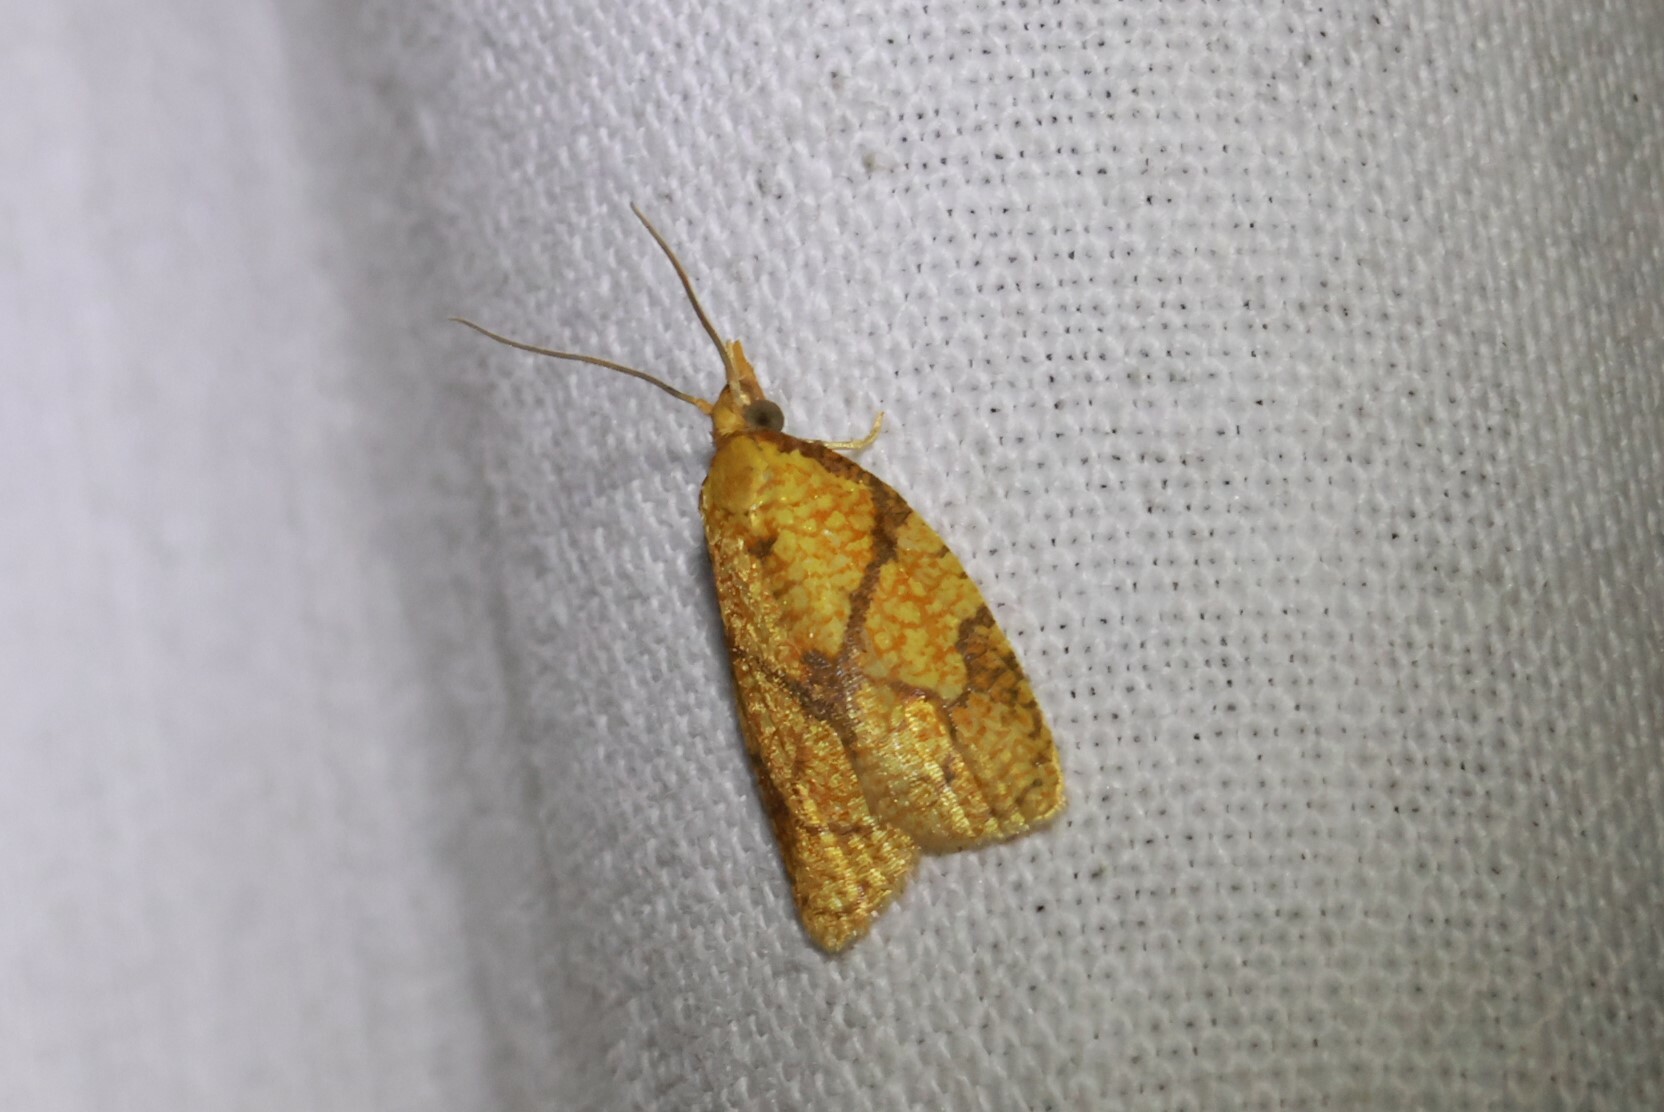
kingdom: Animalia
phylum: Arthropoda
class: Insecta
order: Lepidoptera
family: Tortricidae
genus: Cenopis
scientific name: Cenopis reticulatana
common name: Reticulated fruitworm moth
